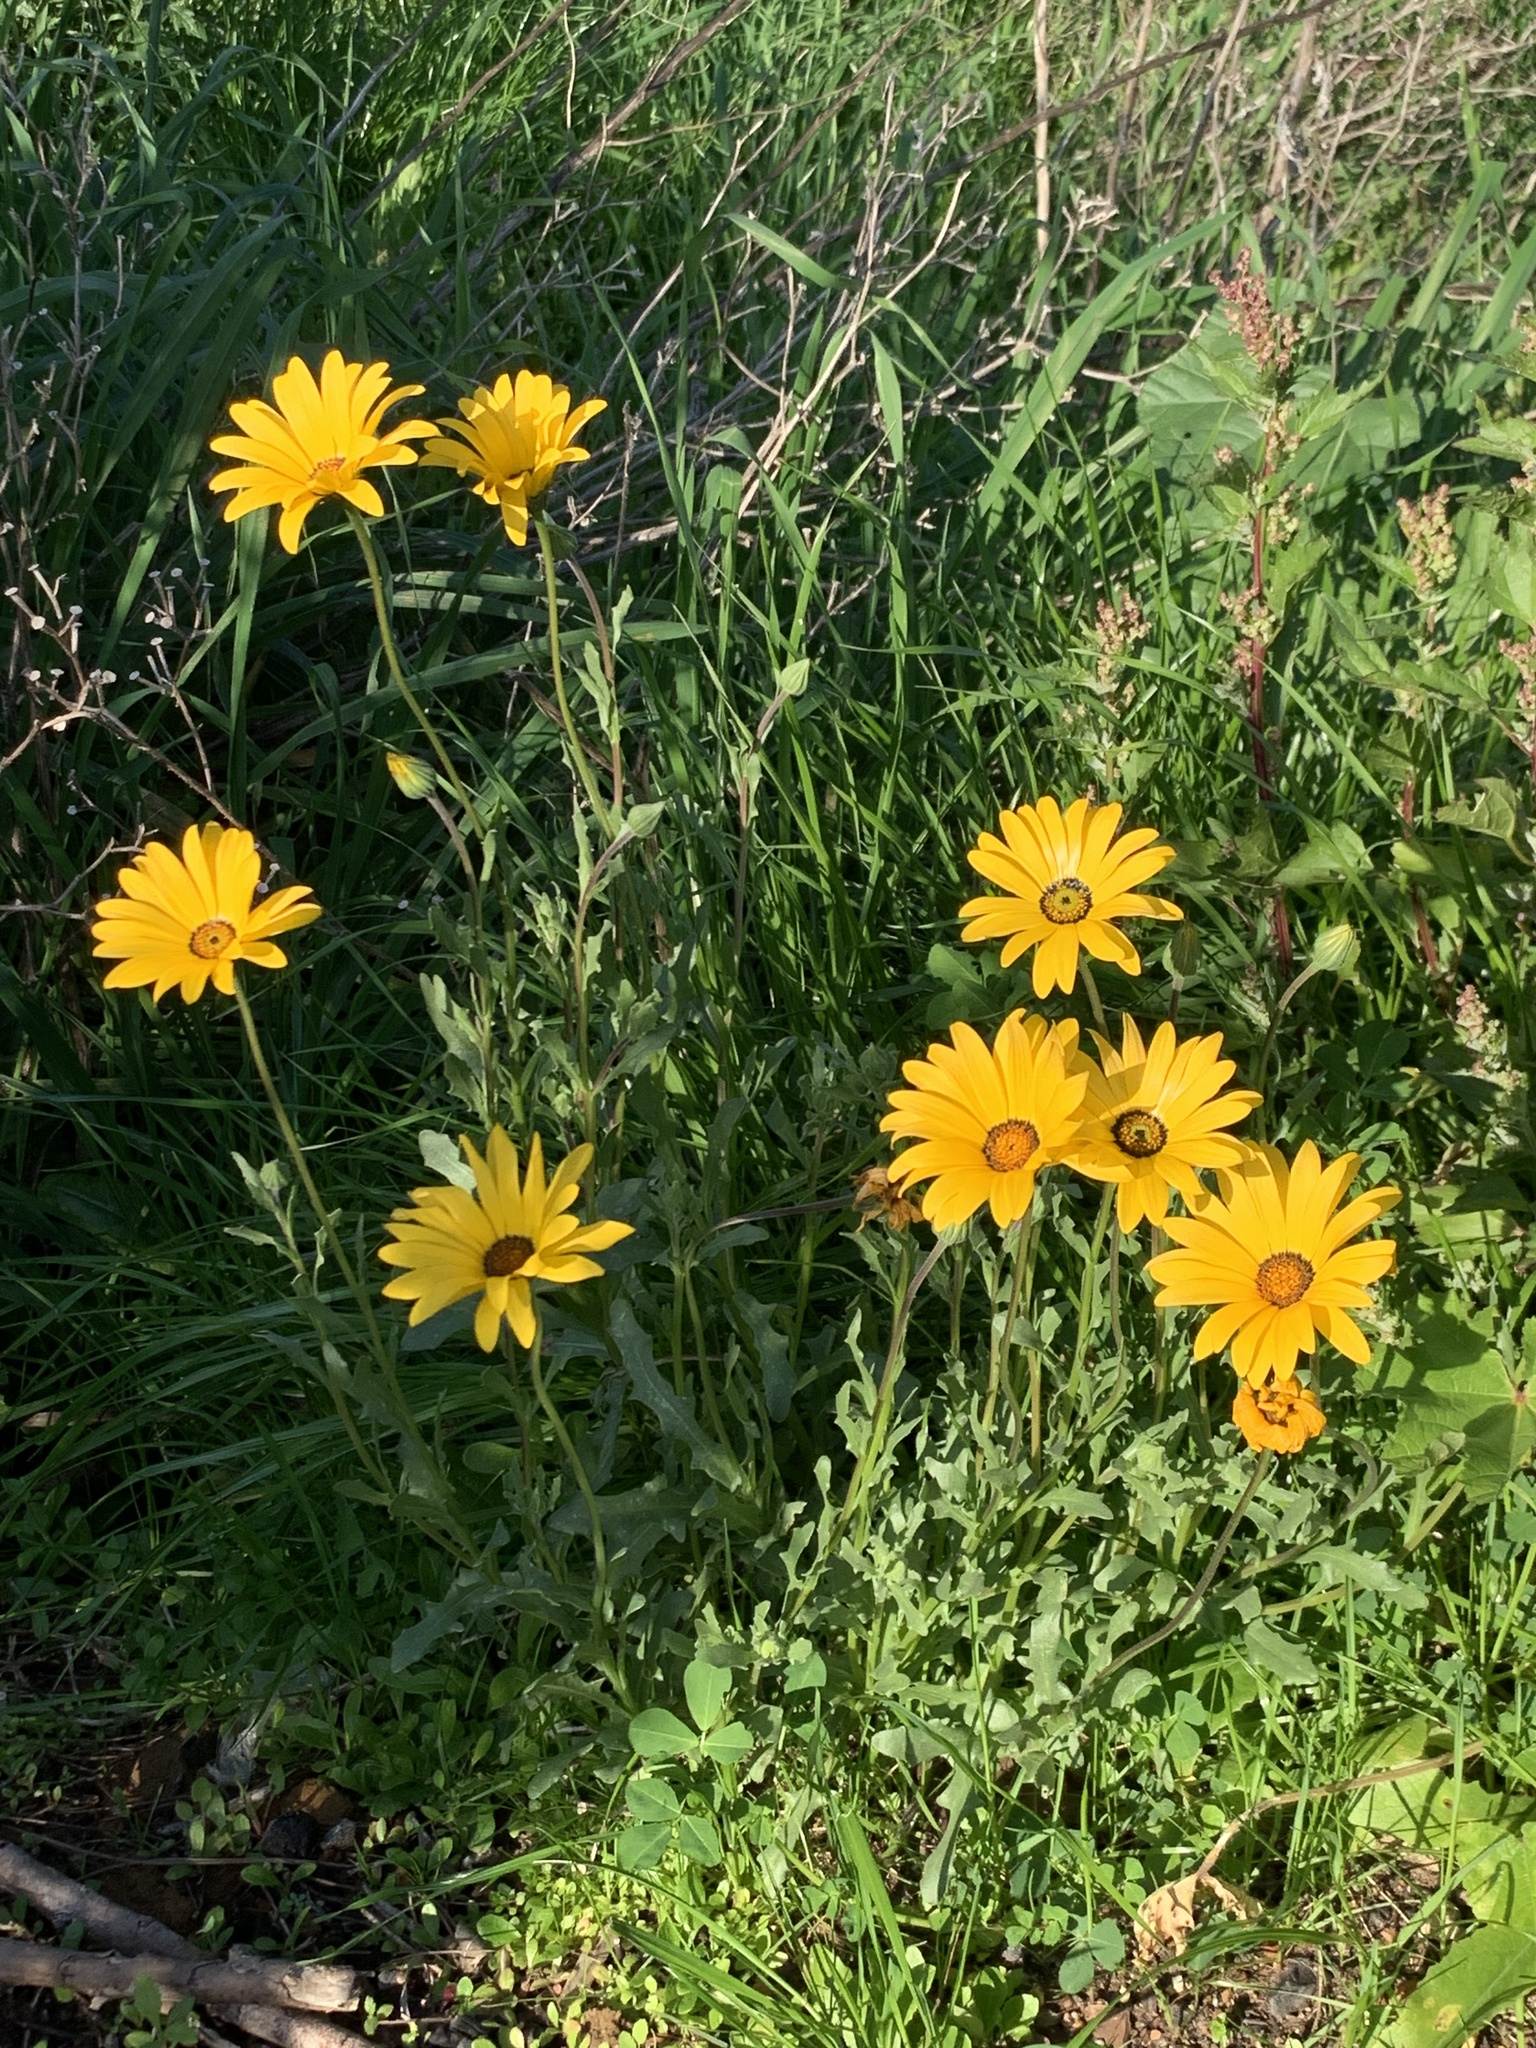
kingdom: Plantae
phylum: Tracheophyta
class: Magnoliopsida
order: Asterales
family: Asteraceae
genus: Dimorphotheca
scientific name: Dimorphotheca sinuata
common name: Glandular cape marigold
